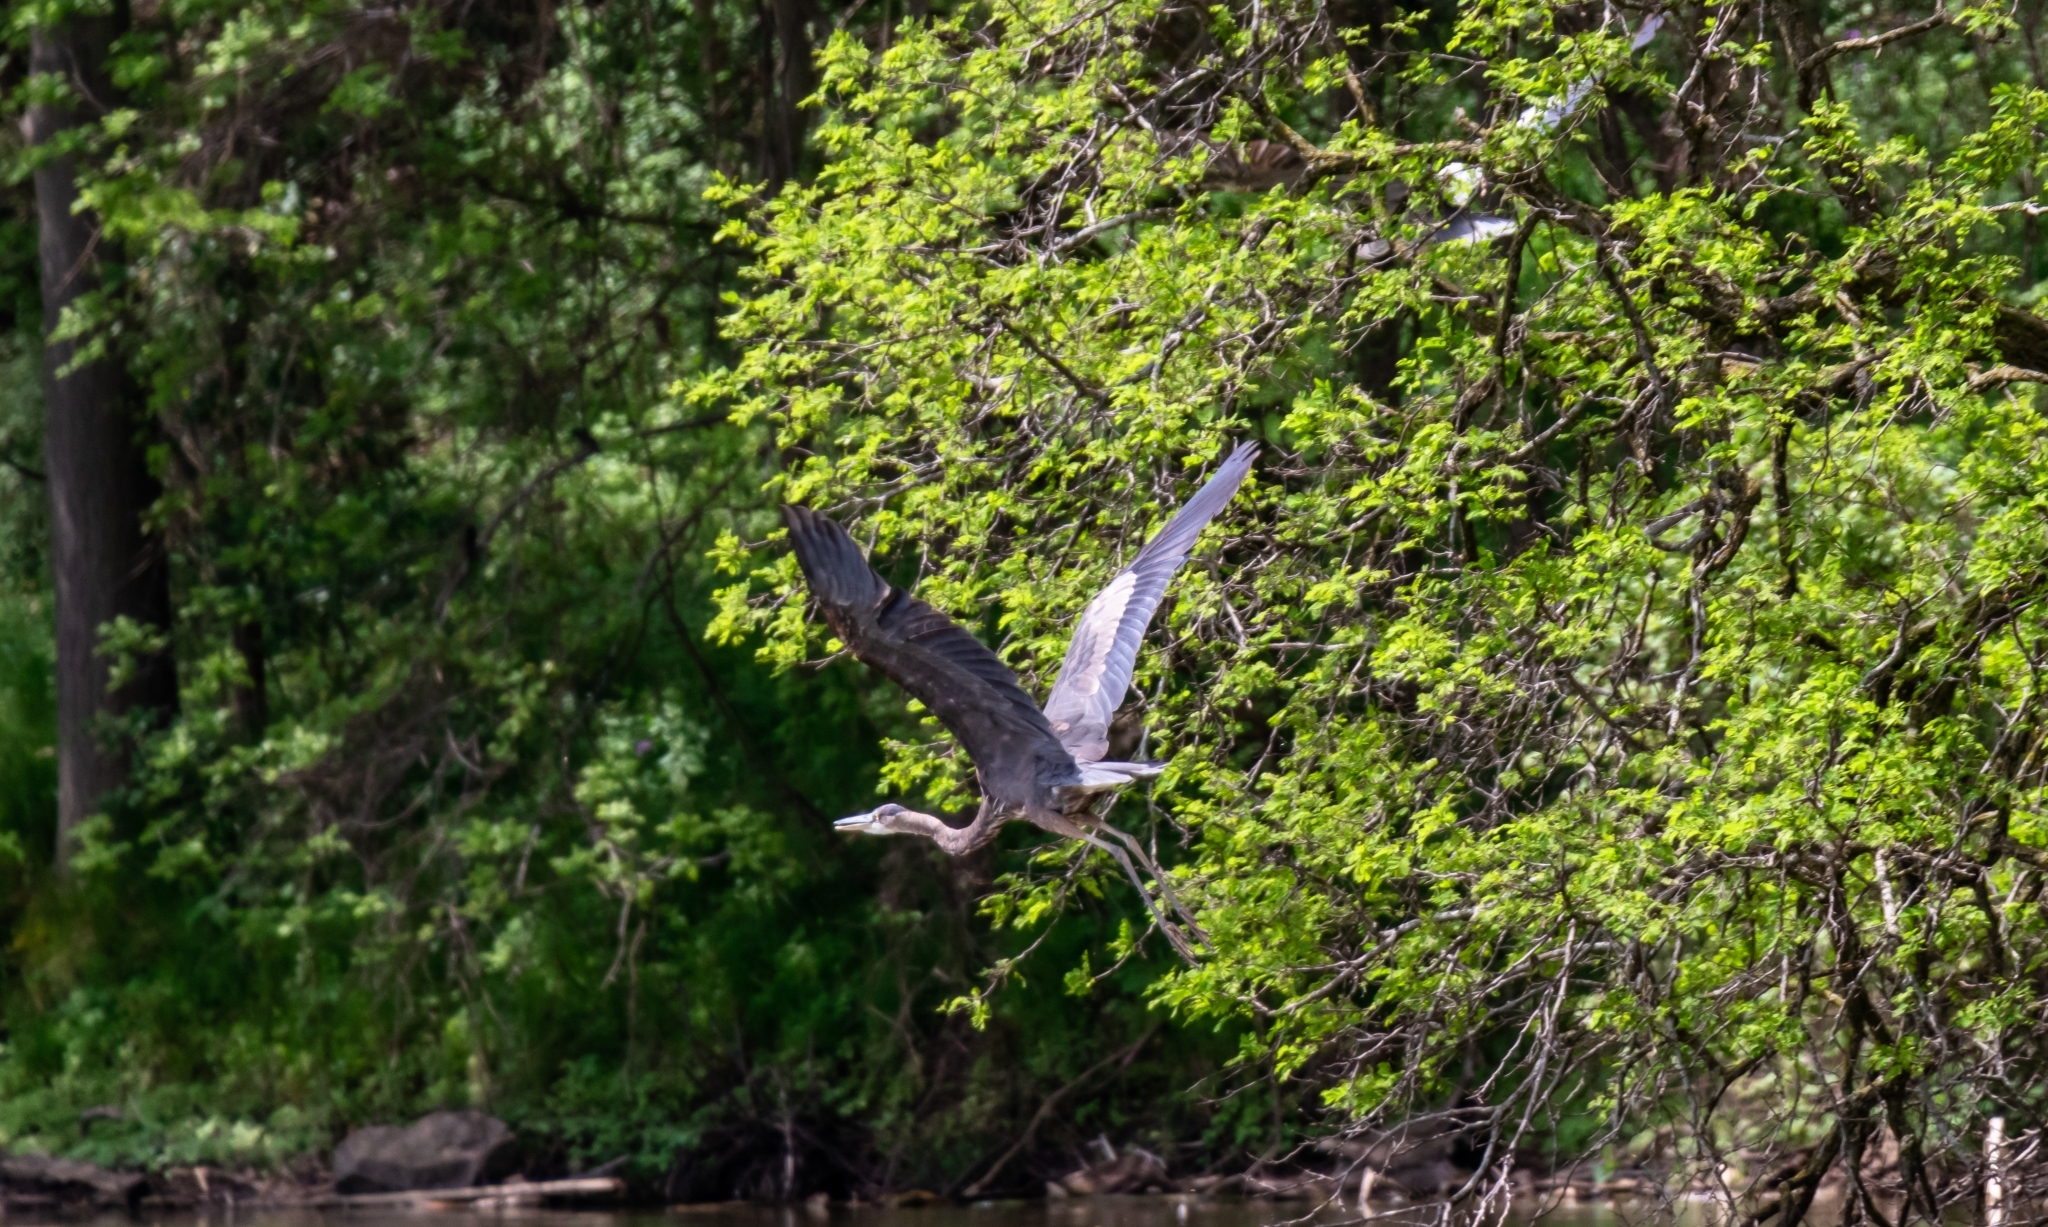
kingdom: Animalia
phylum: Chordata
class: Aves
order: Pelecaniformes
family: Ardeidae
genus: Ardea
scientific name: Ardea herodias
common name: Great blue heron
